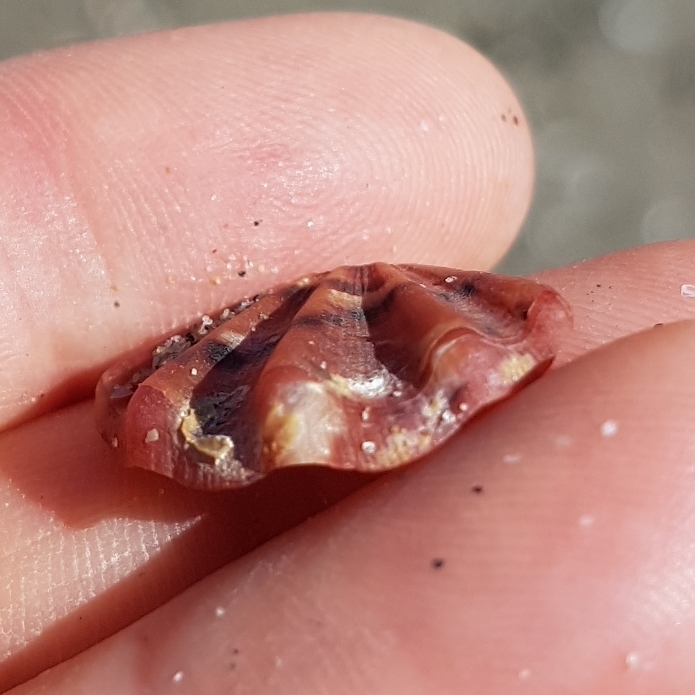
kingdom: Animalia
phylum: Mollusca
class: Bivalvia
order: Pectinida
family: Pectinidae
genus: Flexopecten
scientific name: Flexopecten flexuosus
